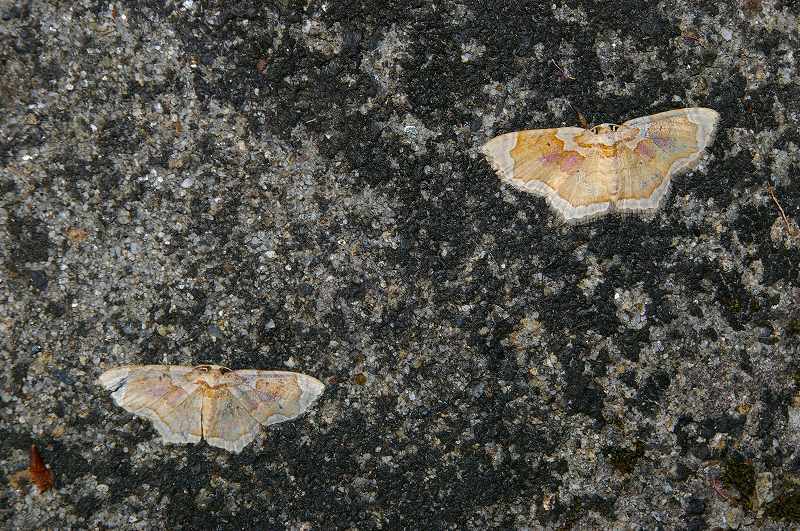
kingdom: Animalia
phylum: Arthropoda
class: Insecta
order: Lepidoptera
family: Geometridae
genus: Palpoctenidia
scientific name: Palpoctenidia phoenicosoma
